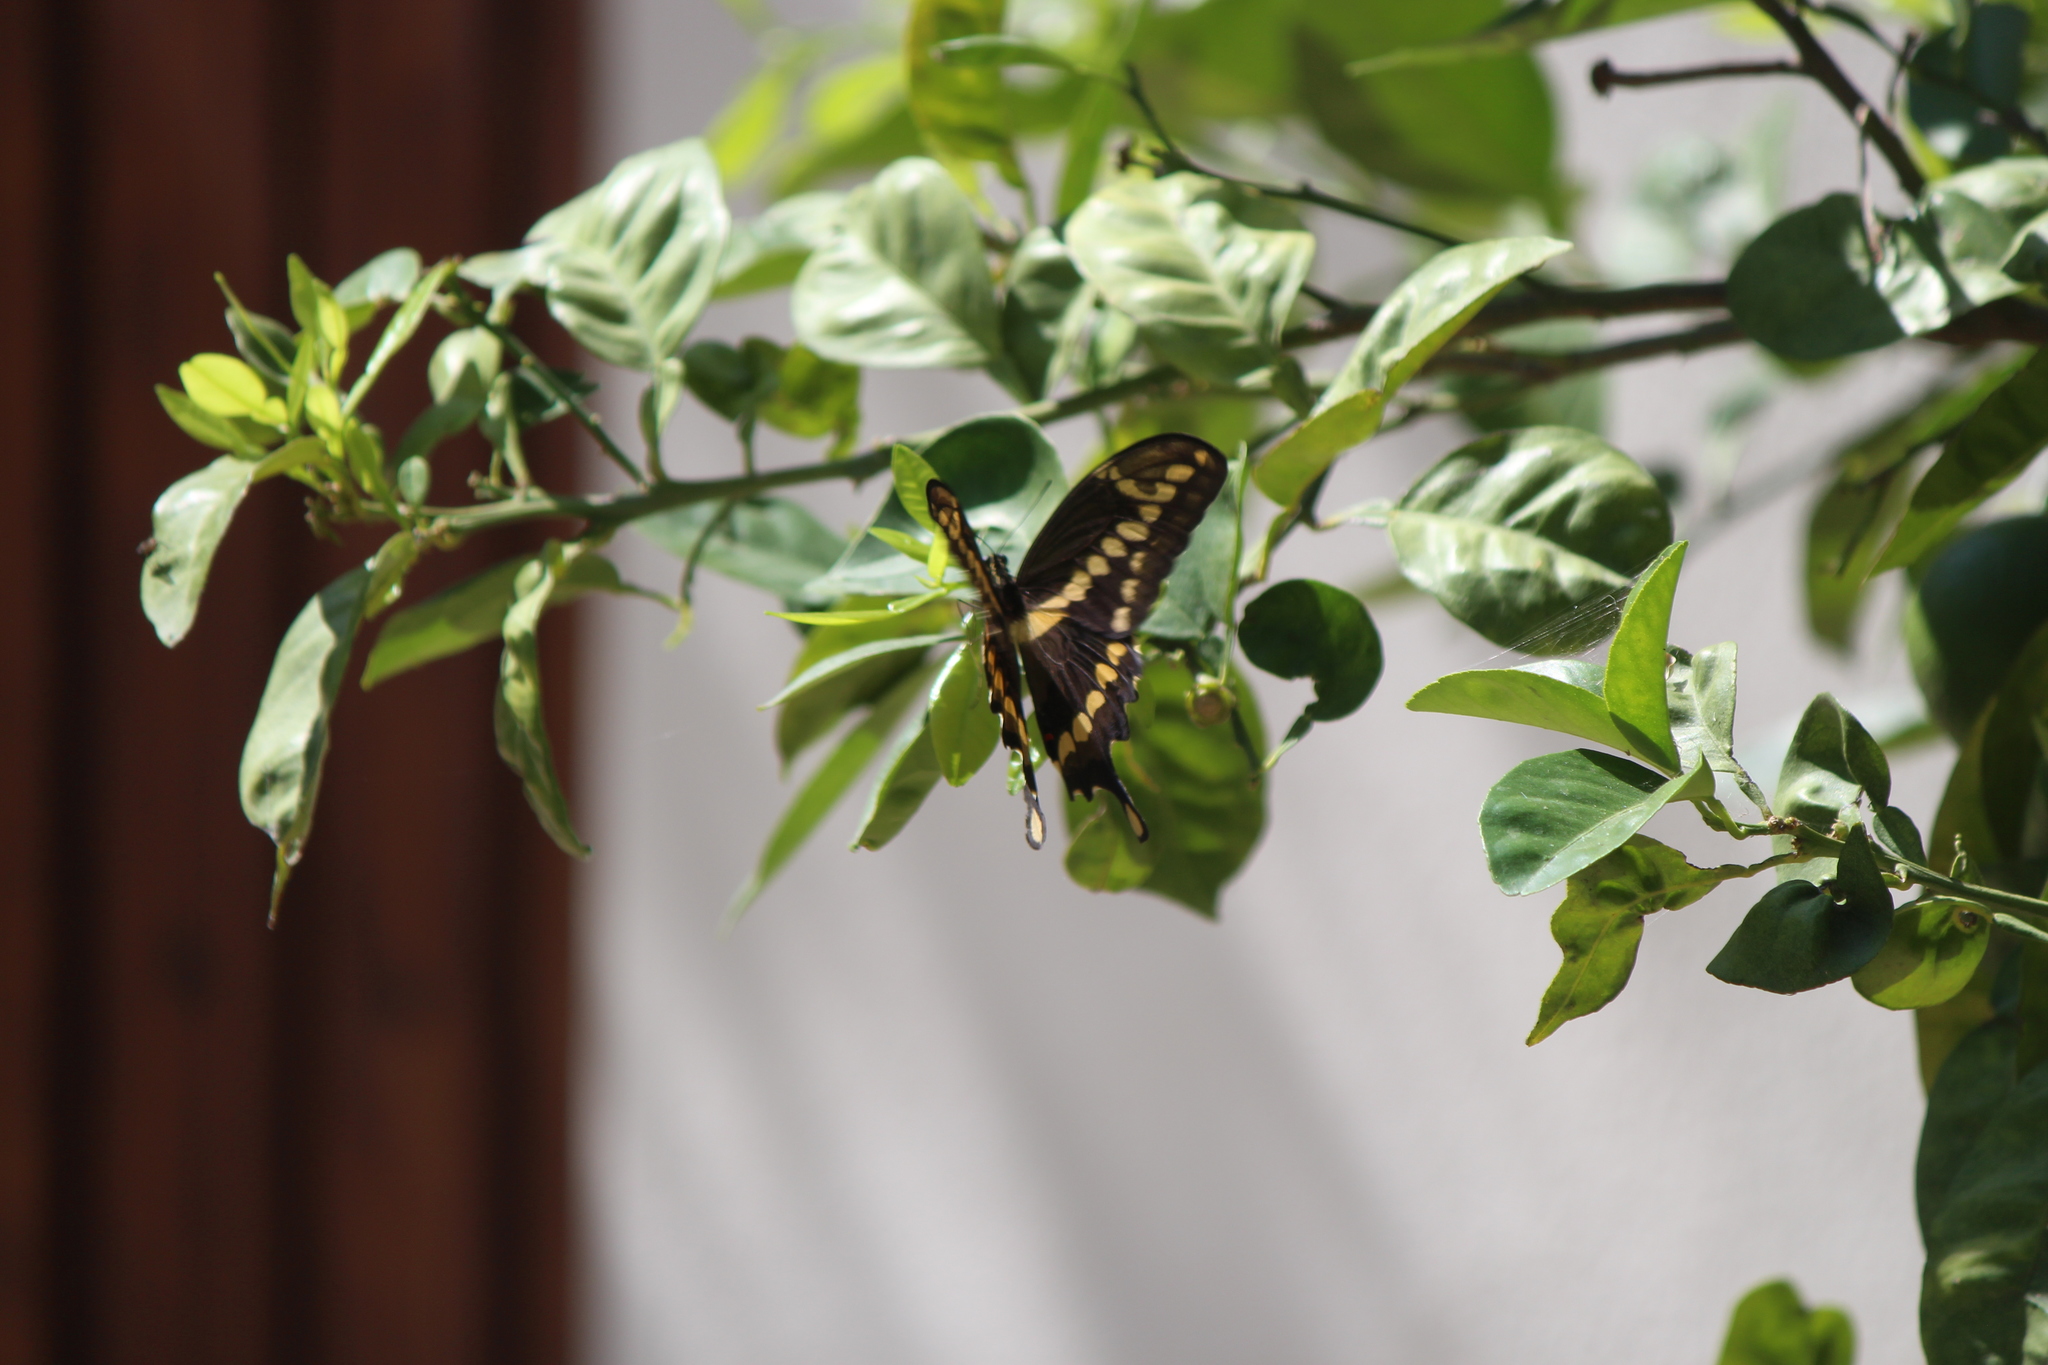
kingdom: Animalia
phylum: Arthropoda
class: Insecta
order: Lepidoptera
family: Papilionidae
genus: Papilio
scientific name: Papilio rumiko
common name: Western giant swallowtail
